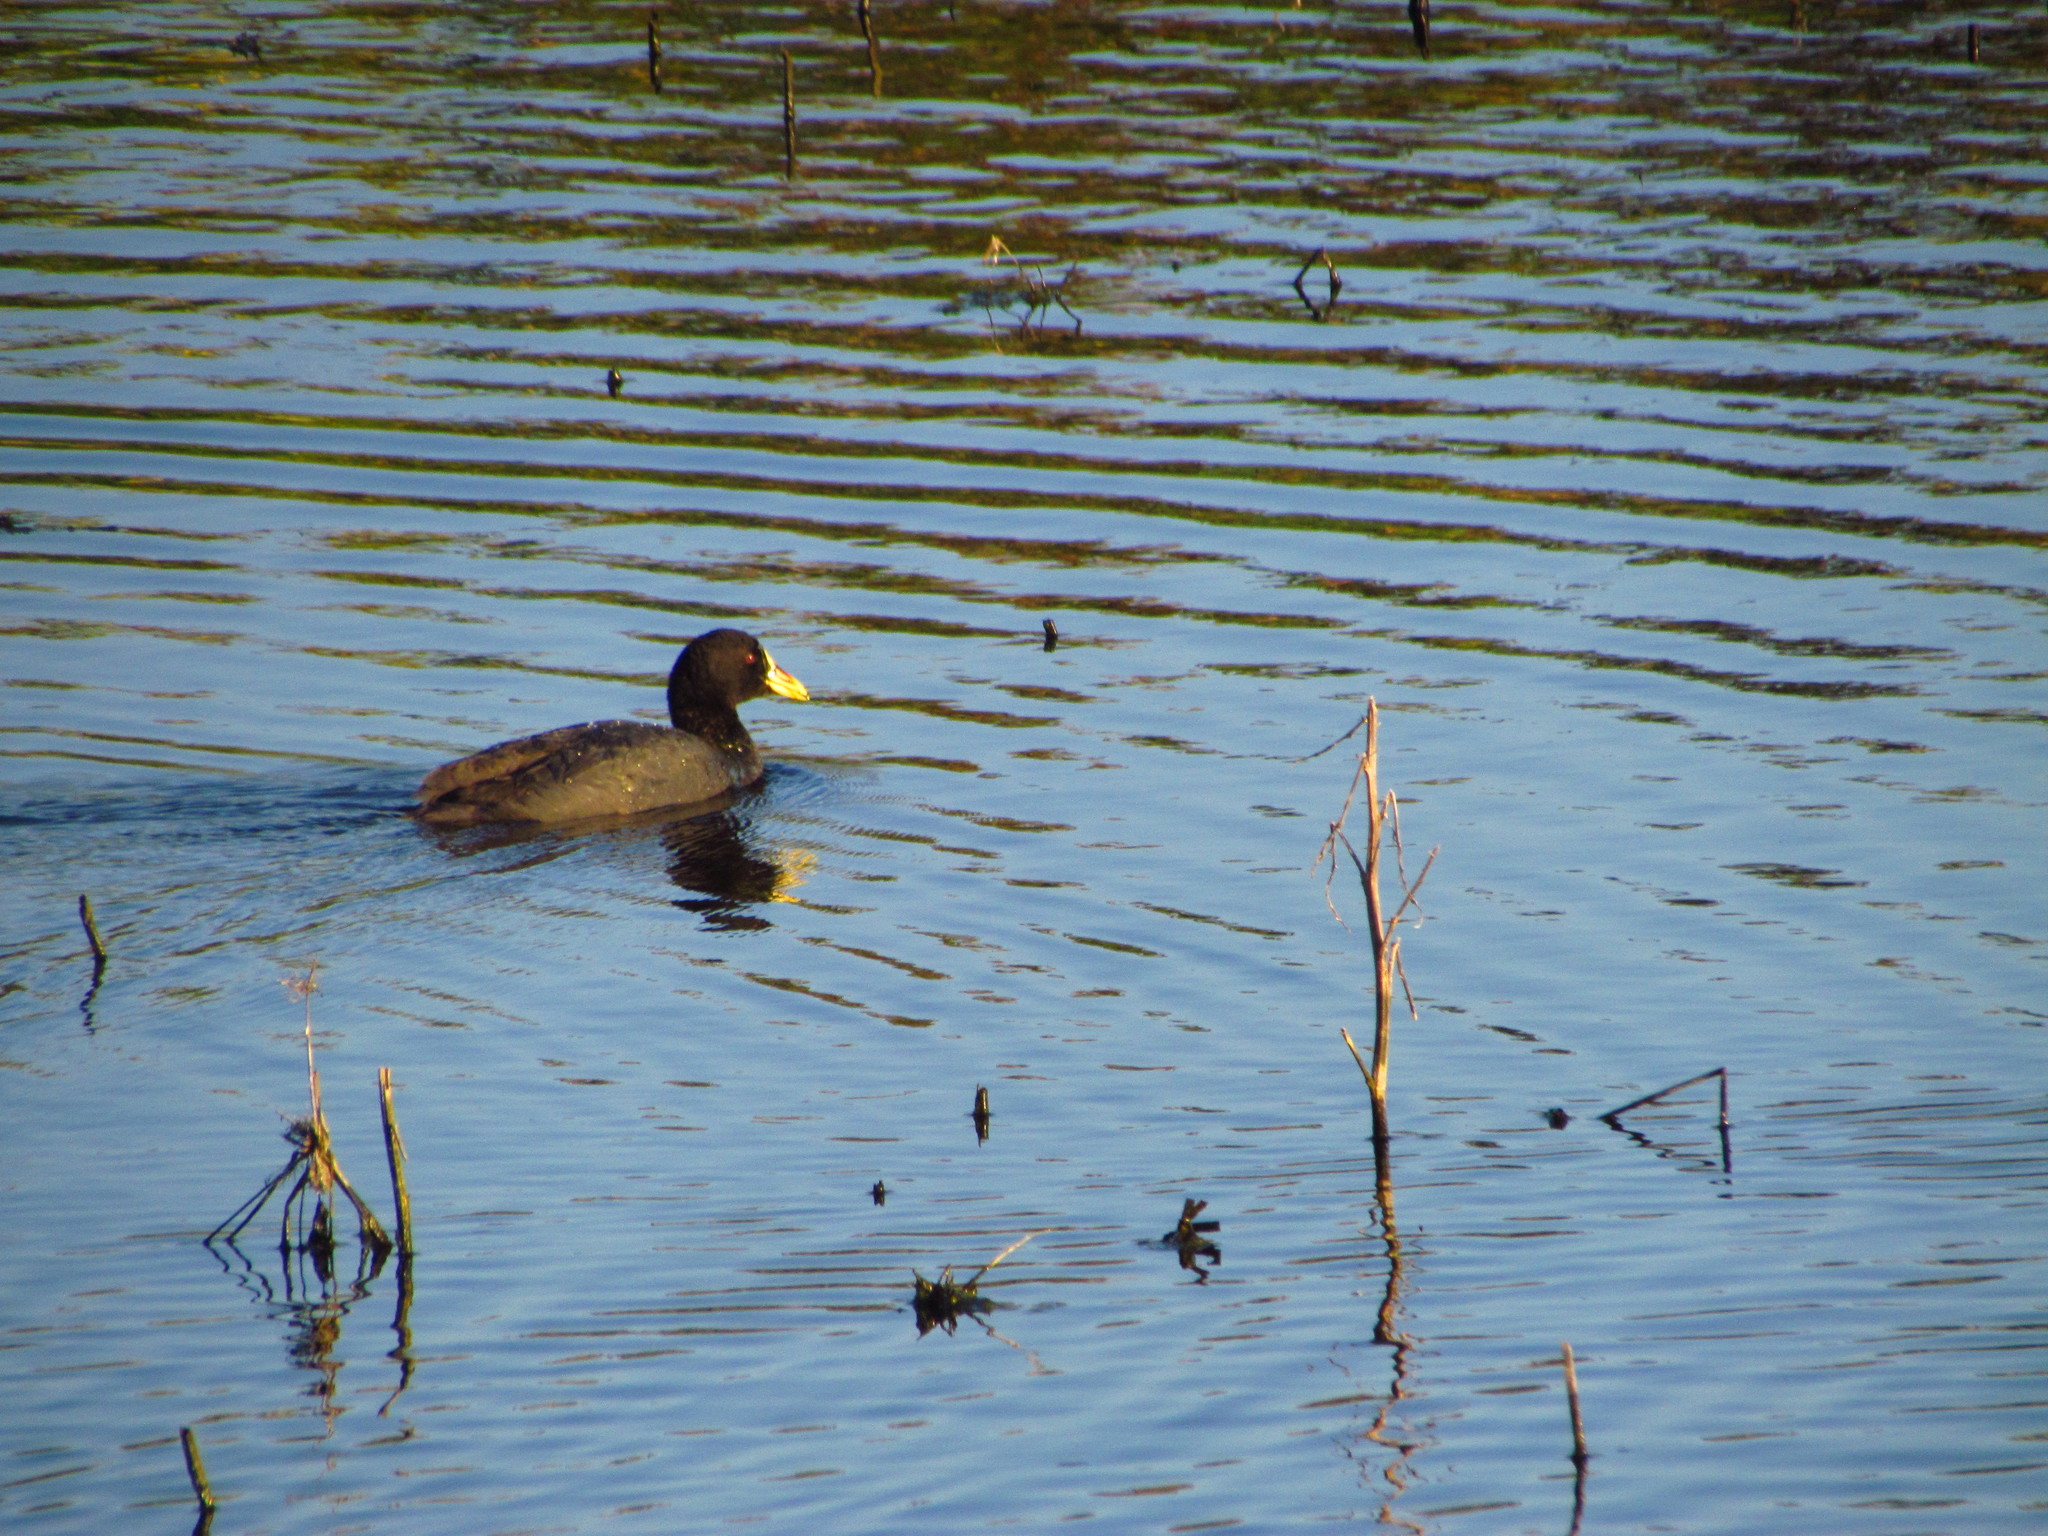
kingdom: Animalia
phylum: Chordata
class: Aves
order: Gruiformes
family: Rallidae
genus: Fulica
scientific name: Fulica armillata
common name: Red-gartered coot
